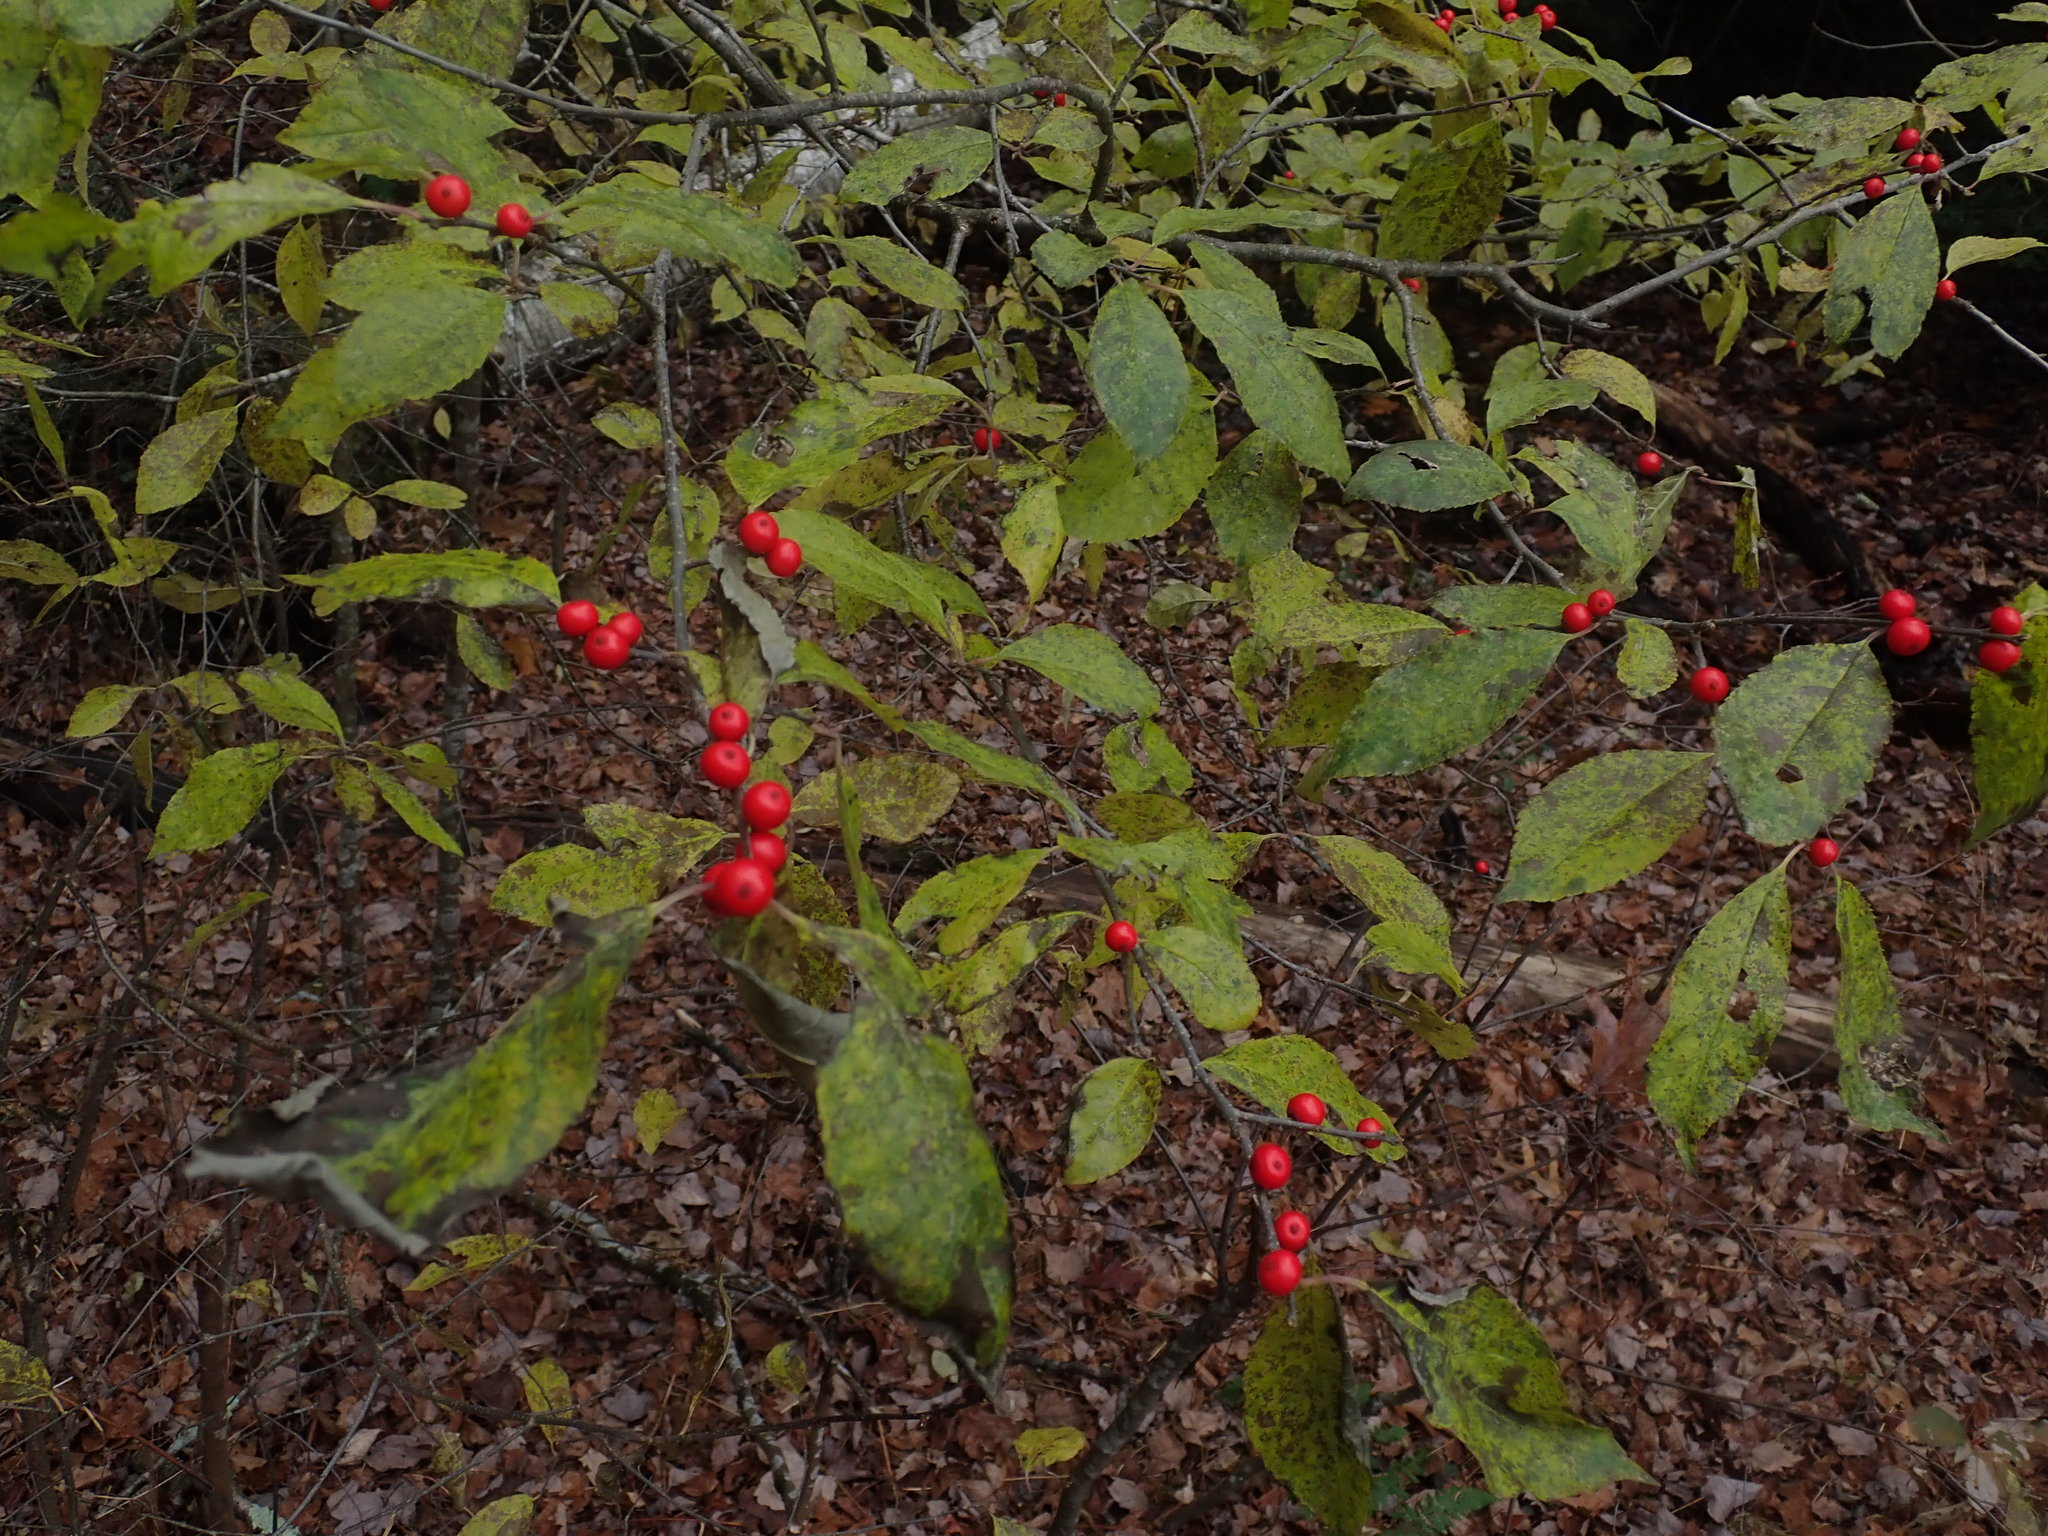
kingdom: Plantae
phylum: Tracheophyta
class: Magnoliopsida
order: Aquifoliales
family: Aquifoliaceae
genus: Ilex
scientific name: Ilex verticillata
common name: Virginia winterberry
